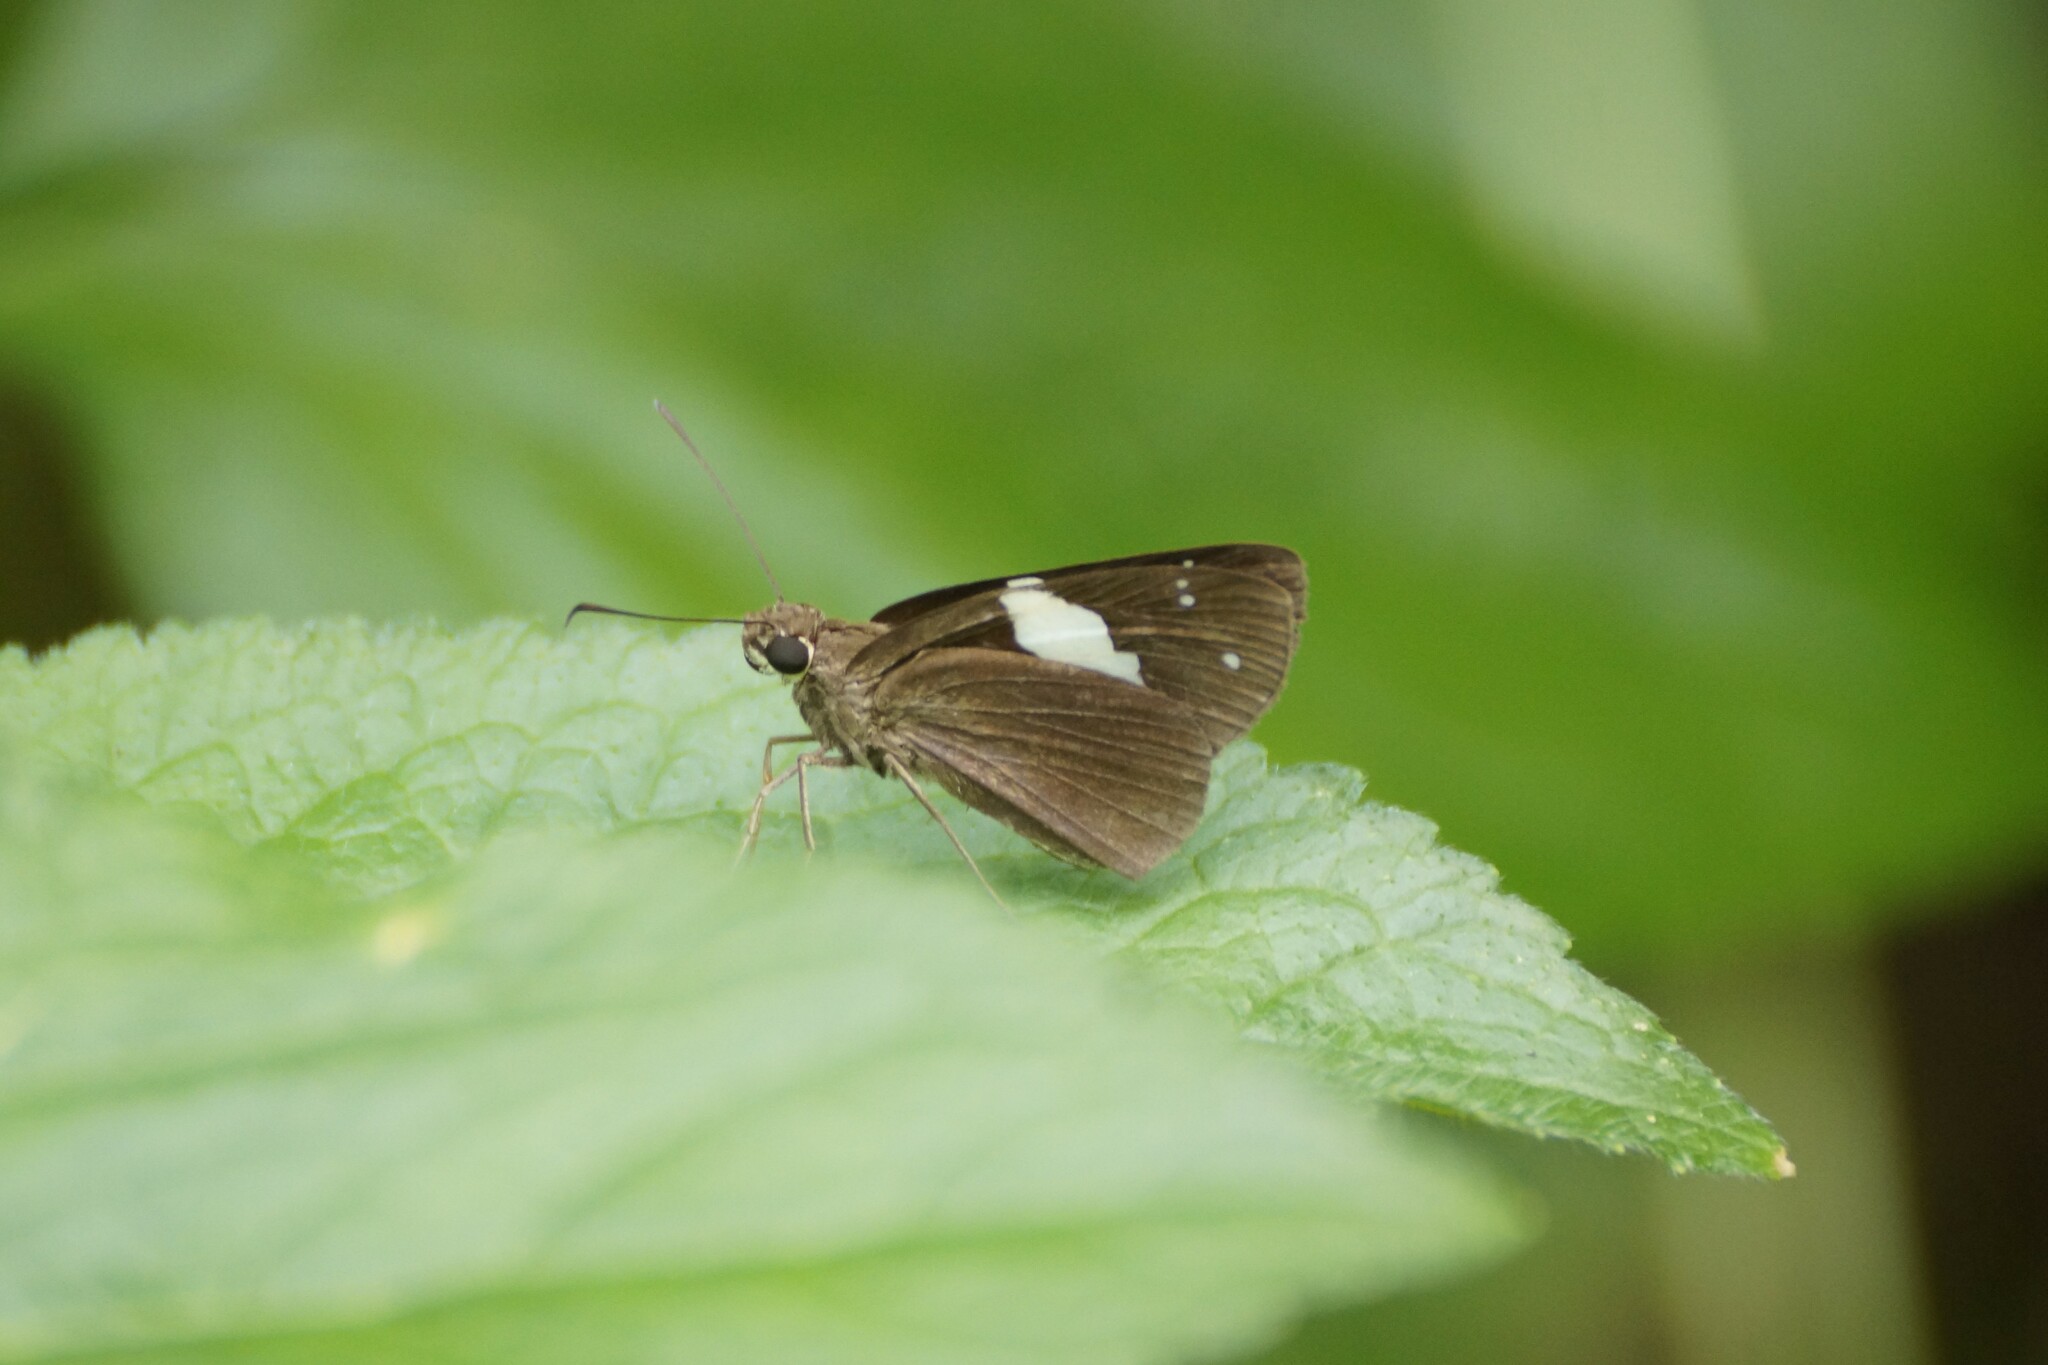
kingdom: Animalia
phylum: Arthropoda
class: Insecta
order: Lepidoptera
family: Hesperiidae
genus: Notocrypta
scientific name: Notocrypta waigensis
